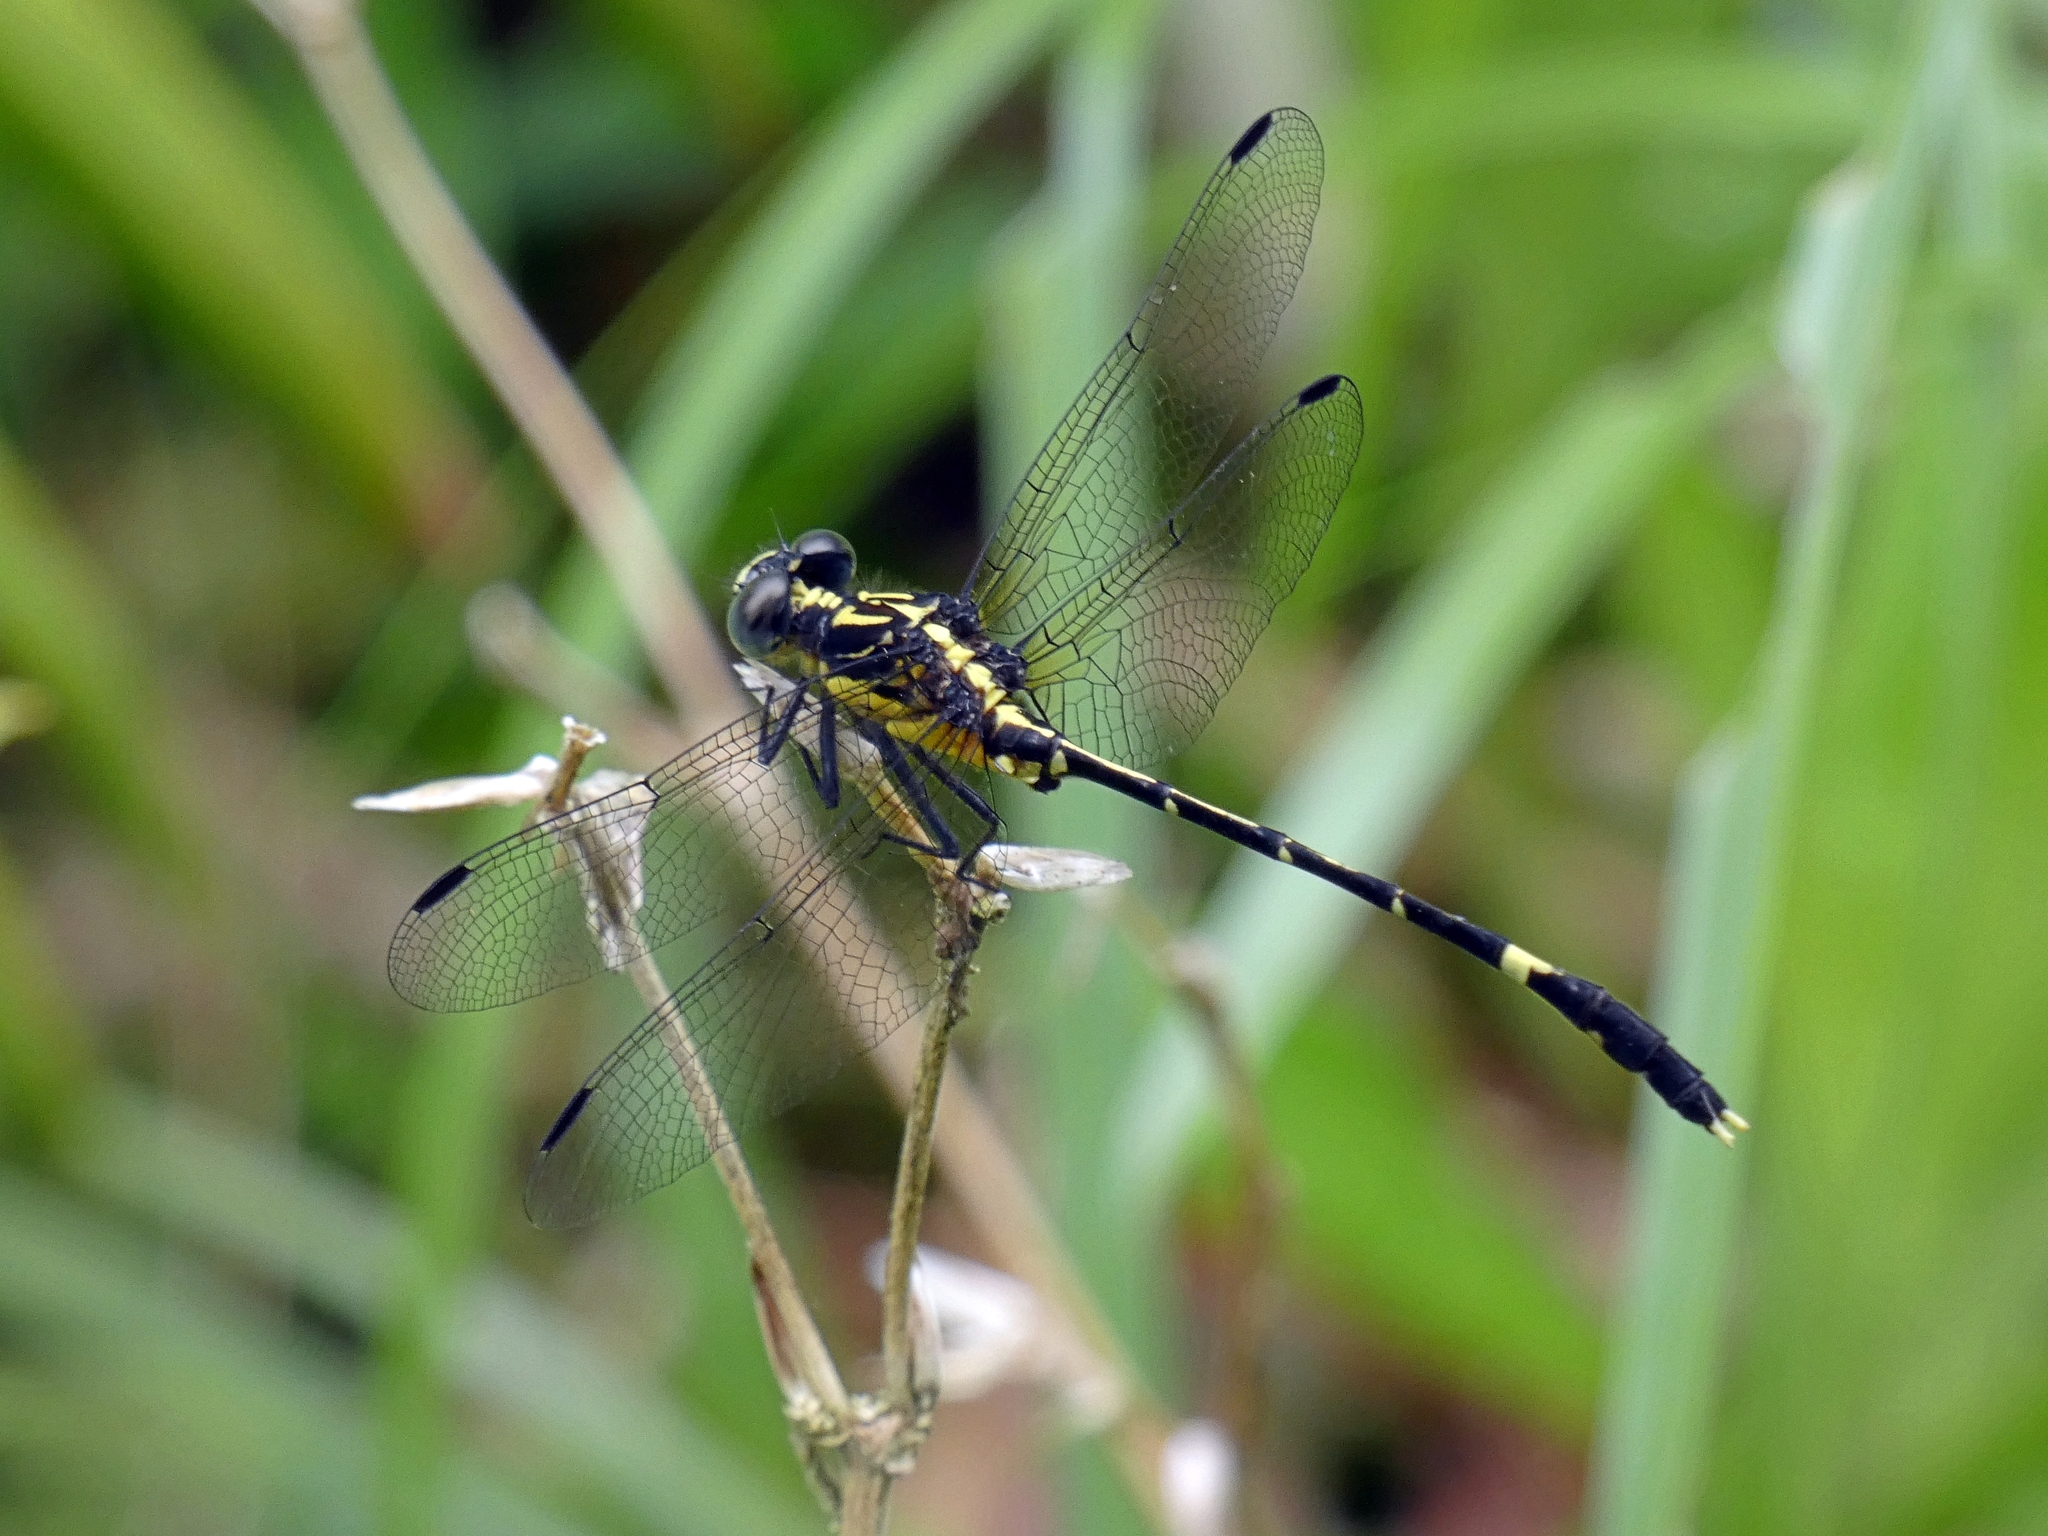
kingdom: Animalia
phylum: Arthropoda
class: Insecta
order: Odonata
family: Gomphidae
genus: Austrogomphus
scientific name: Austrogomphus prasinus
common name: Lemon-tipped hunter
